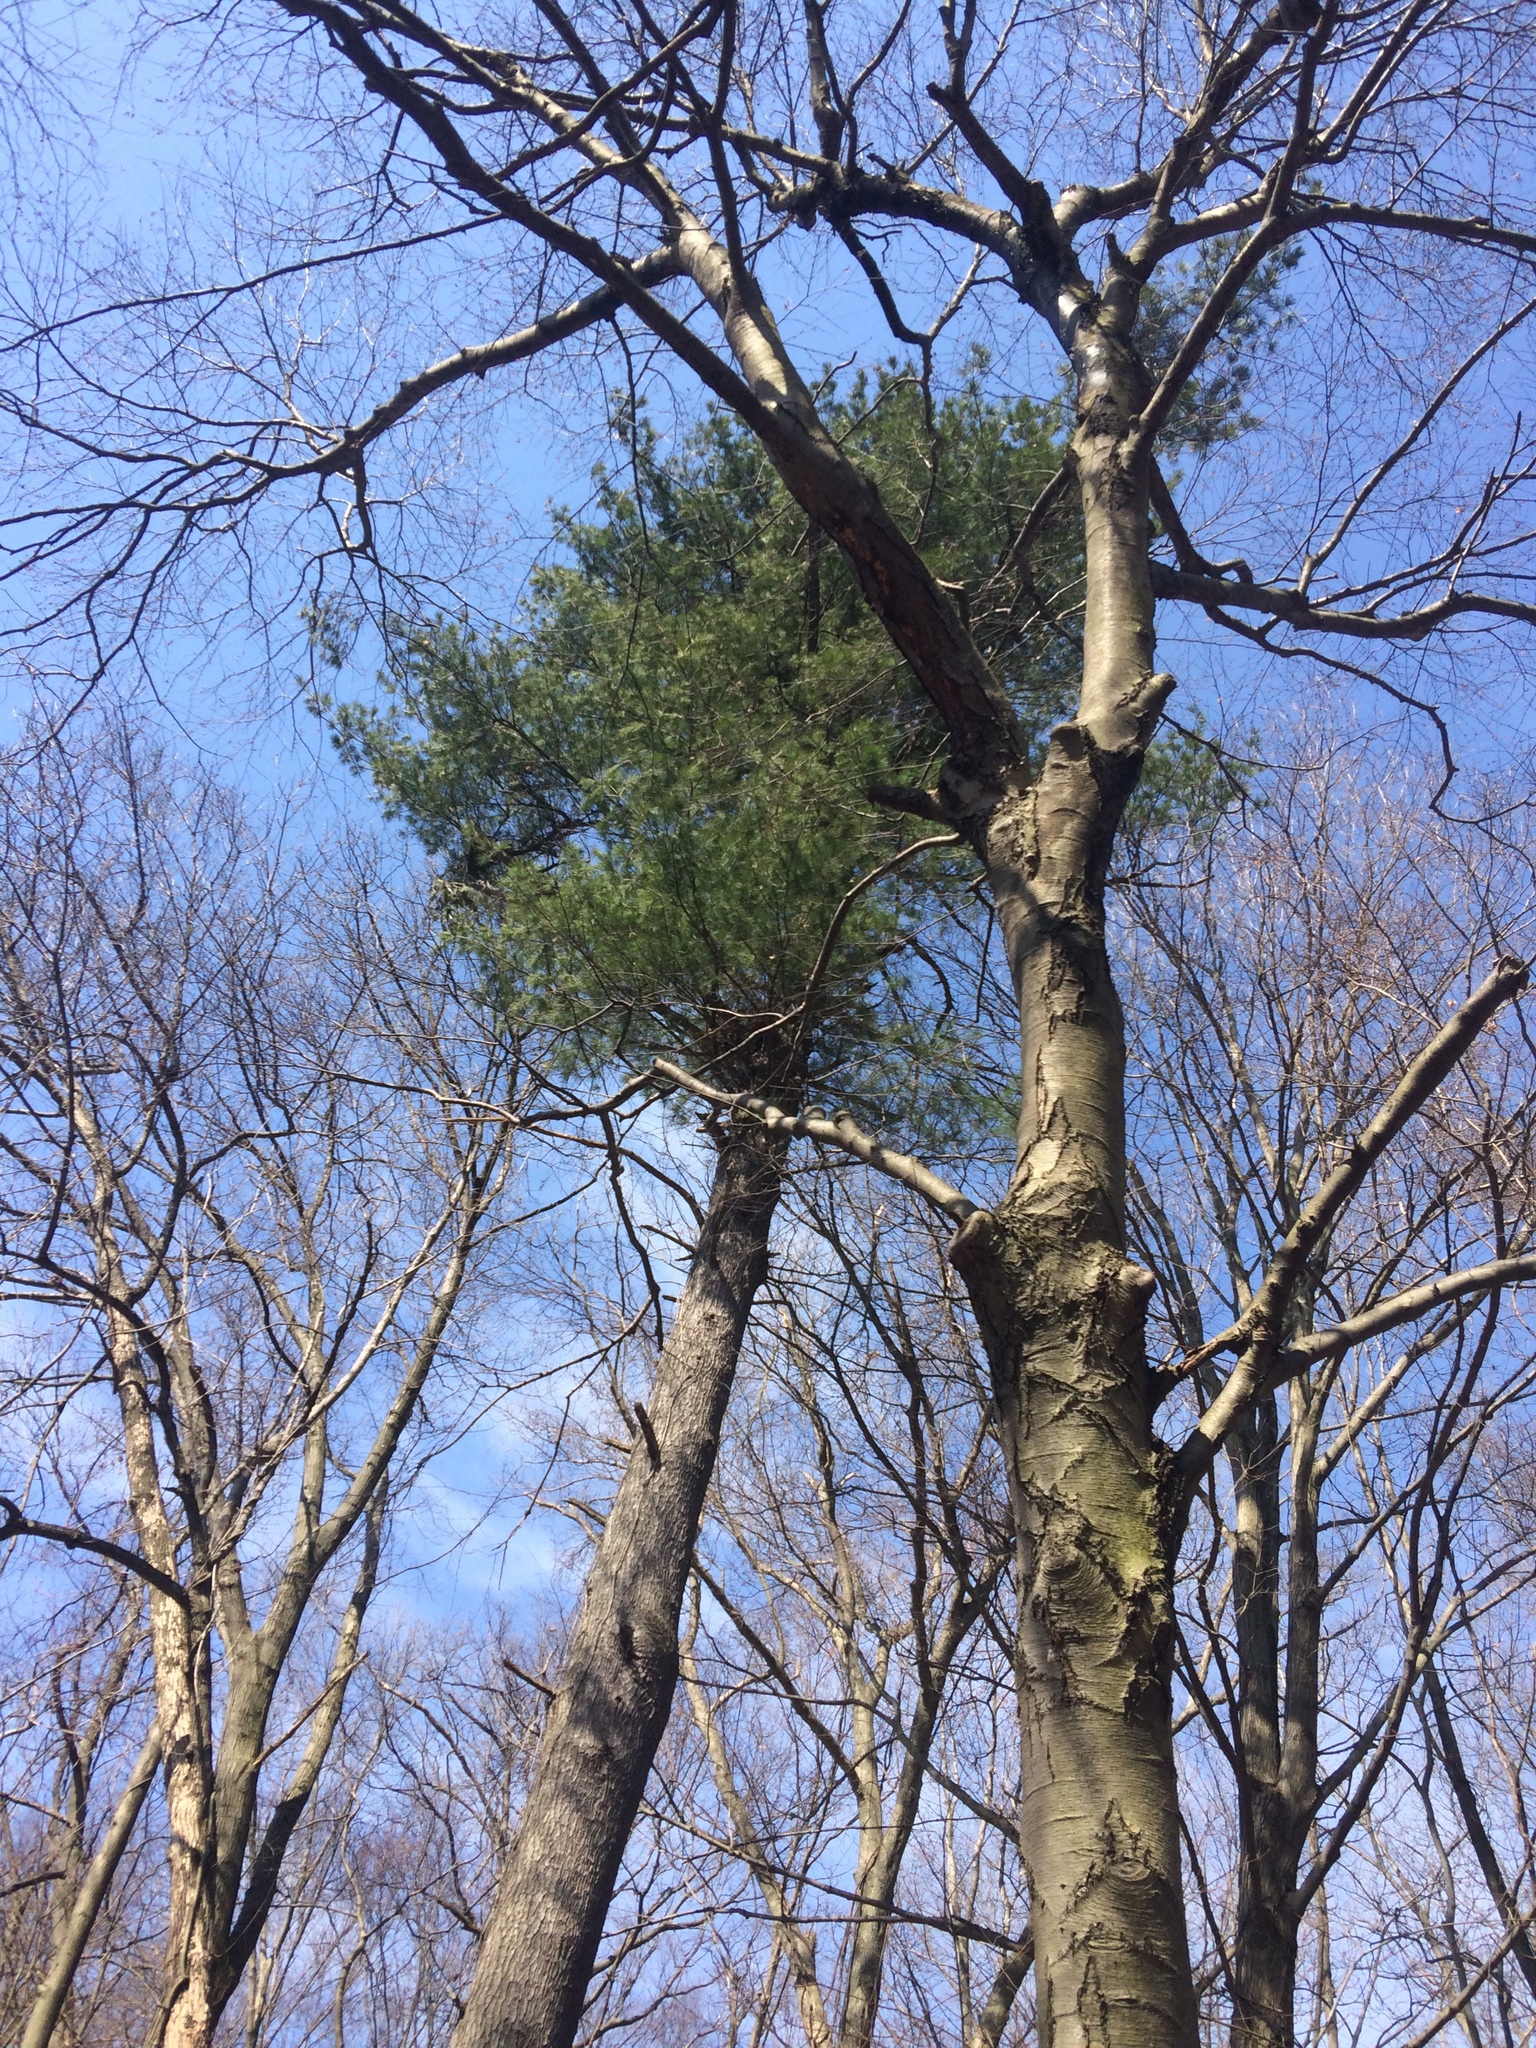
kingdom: Plantae
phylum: Tracheophyta
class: Pinopsida
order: Pinales
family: Pinaceae
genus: Pinus
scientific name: Pinus strobus
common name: Weymouth pine
